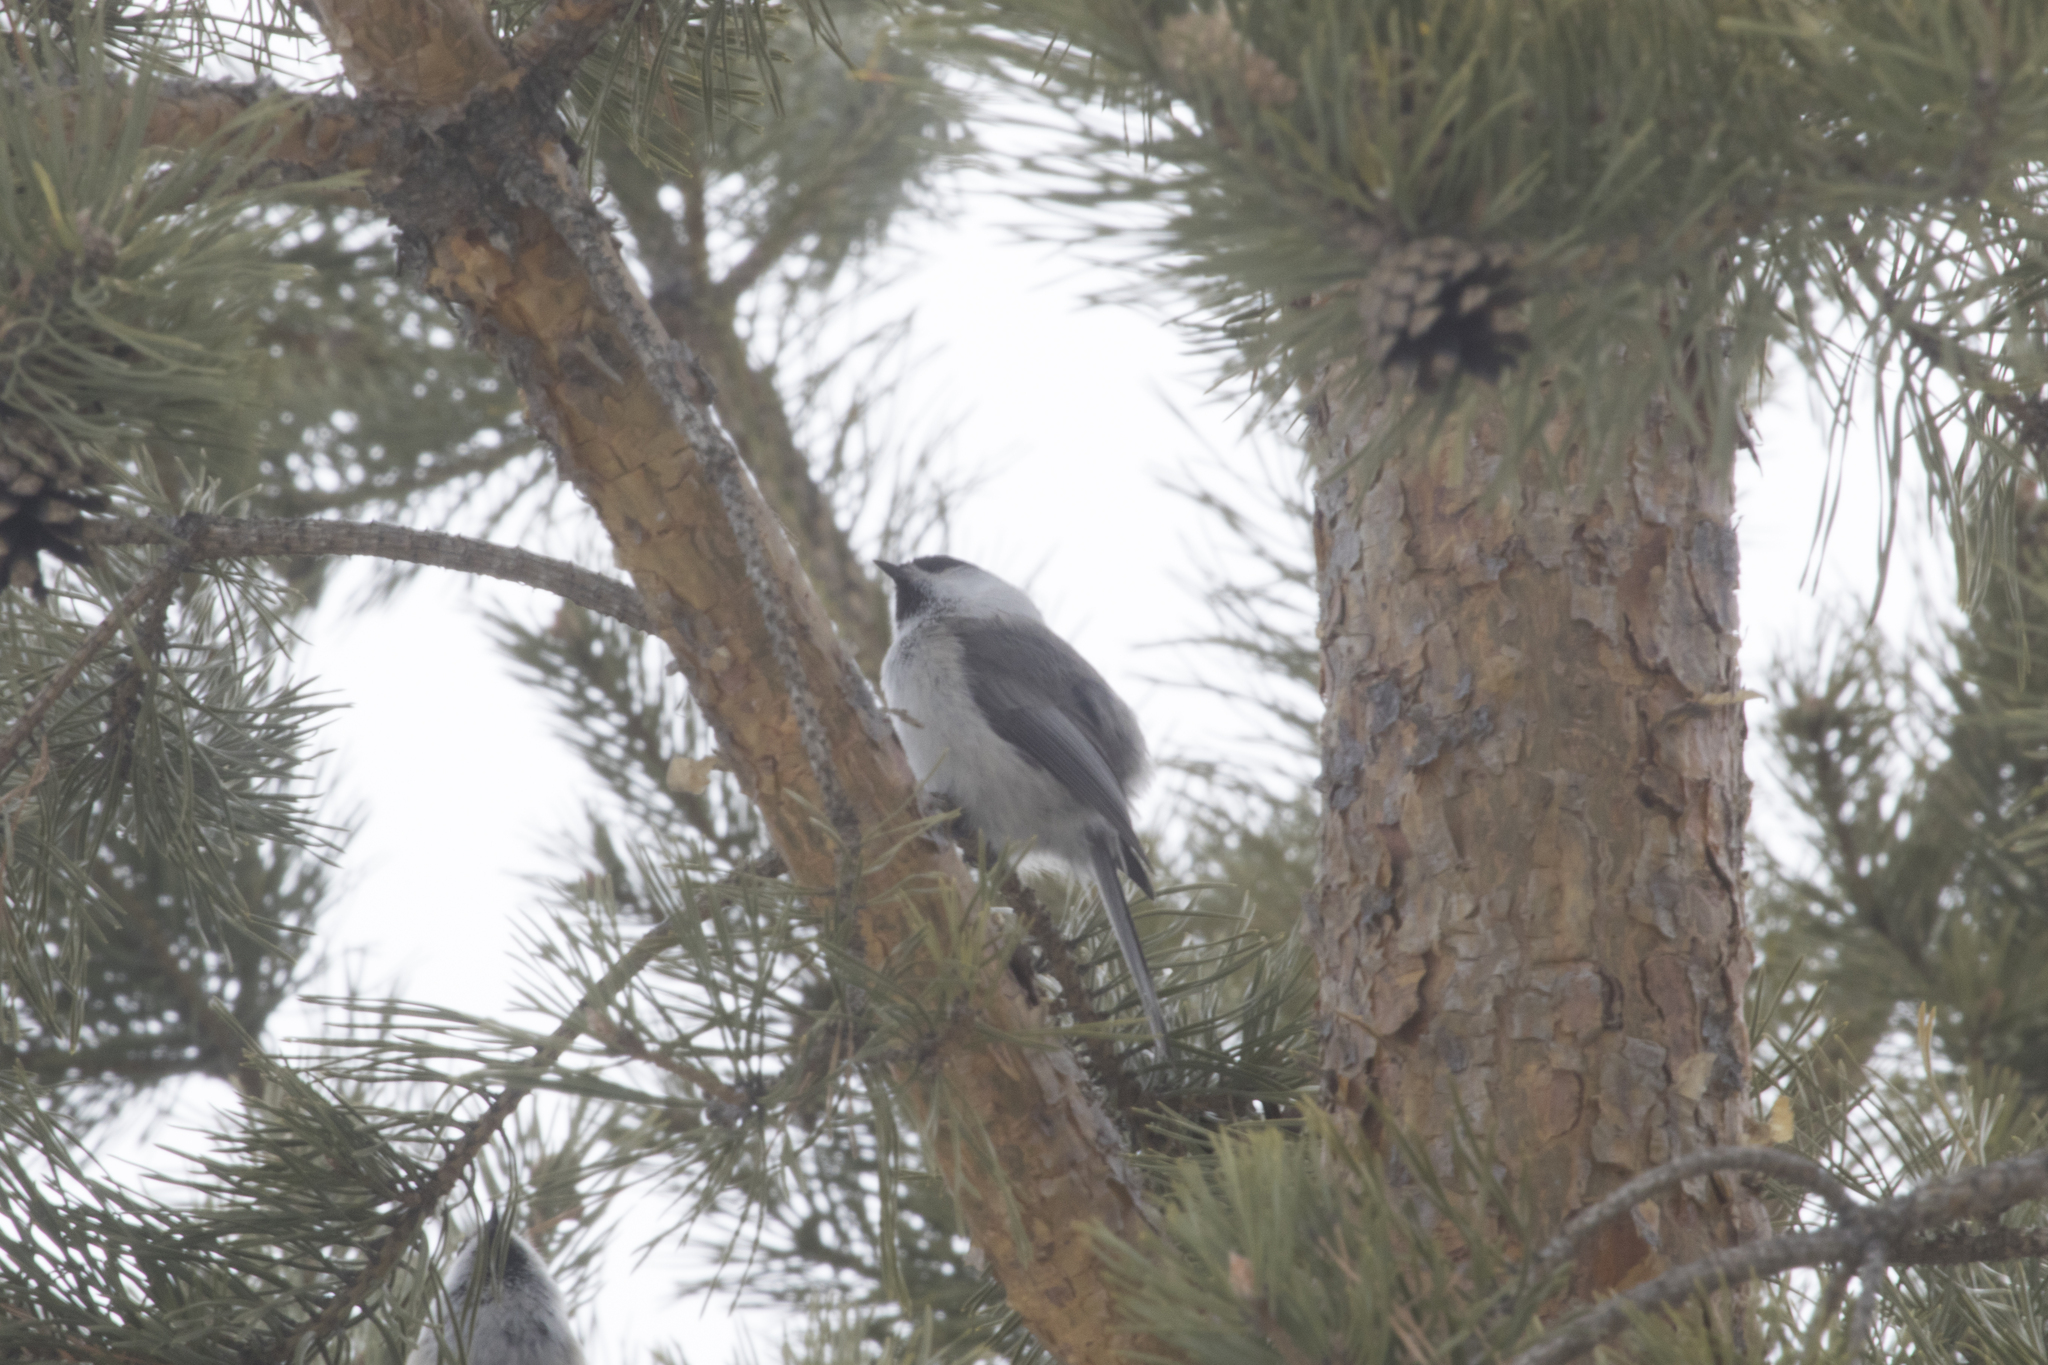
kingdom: Animalia
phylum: Chordata
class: Aves
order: Passeriformes
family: Paridae
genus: Poecile
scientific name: Poecile montanus
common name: Willow tit
